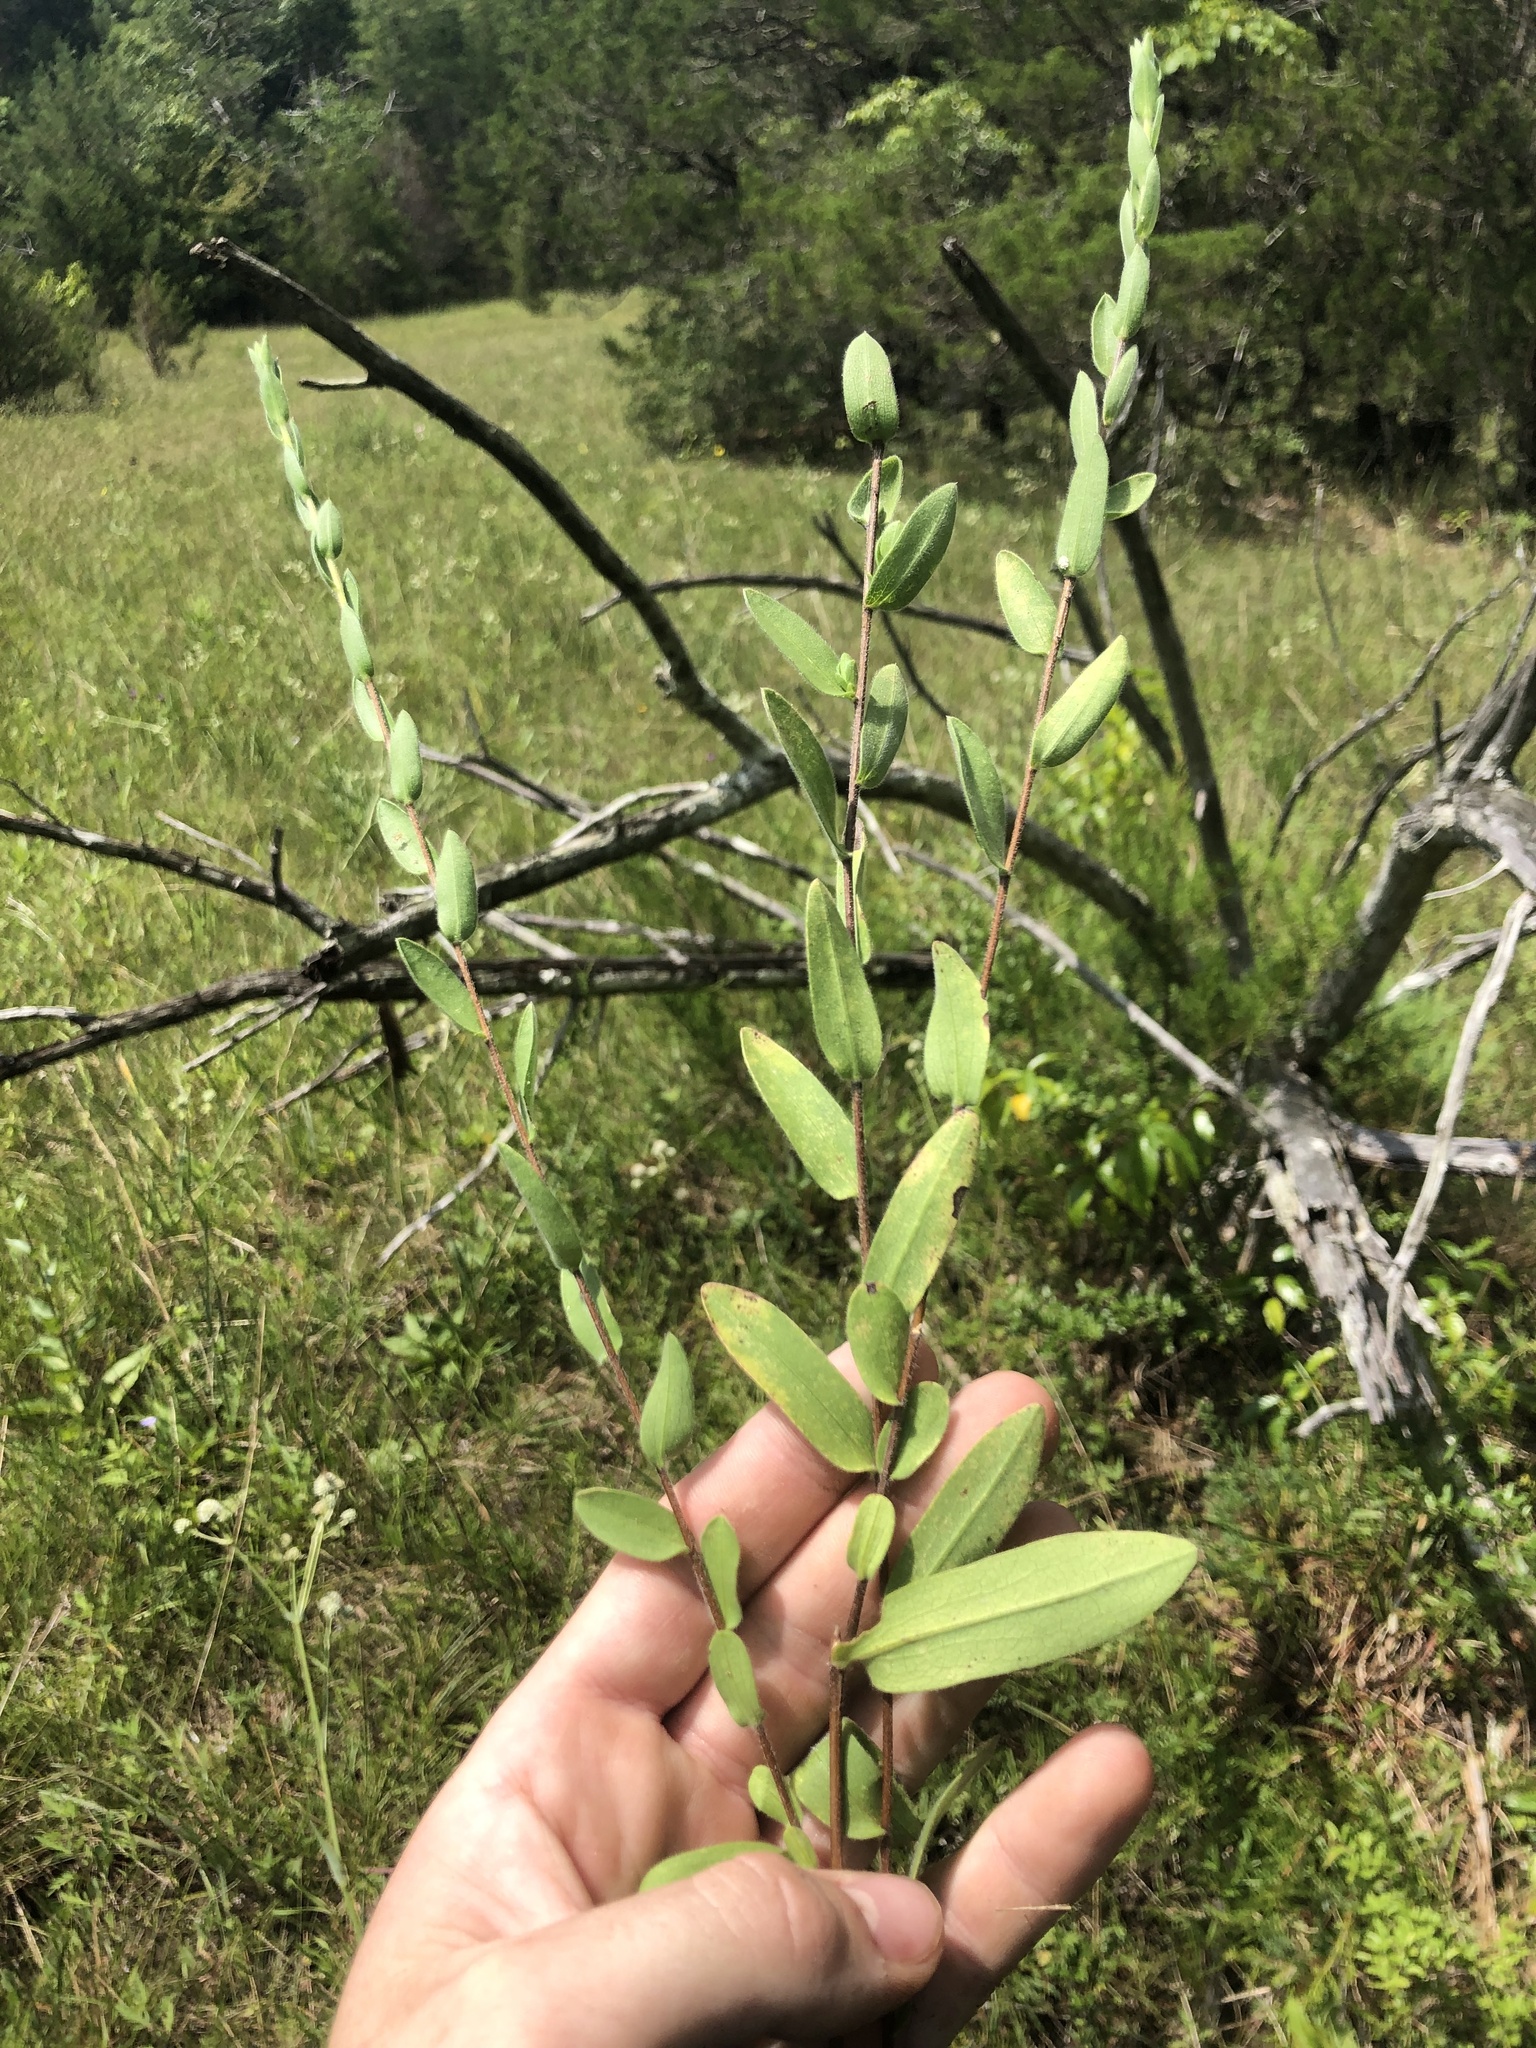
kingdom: Plantae
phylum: Tracheophyta
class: Magnoliopsida
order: Asterales
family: Asteraceae
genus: Symphyotrichum
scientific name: Symphyotrichum pratense
